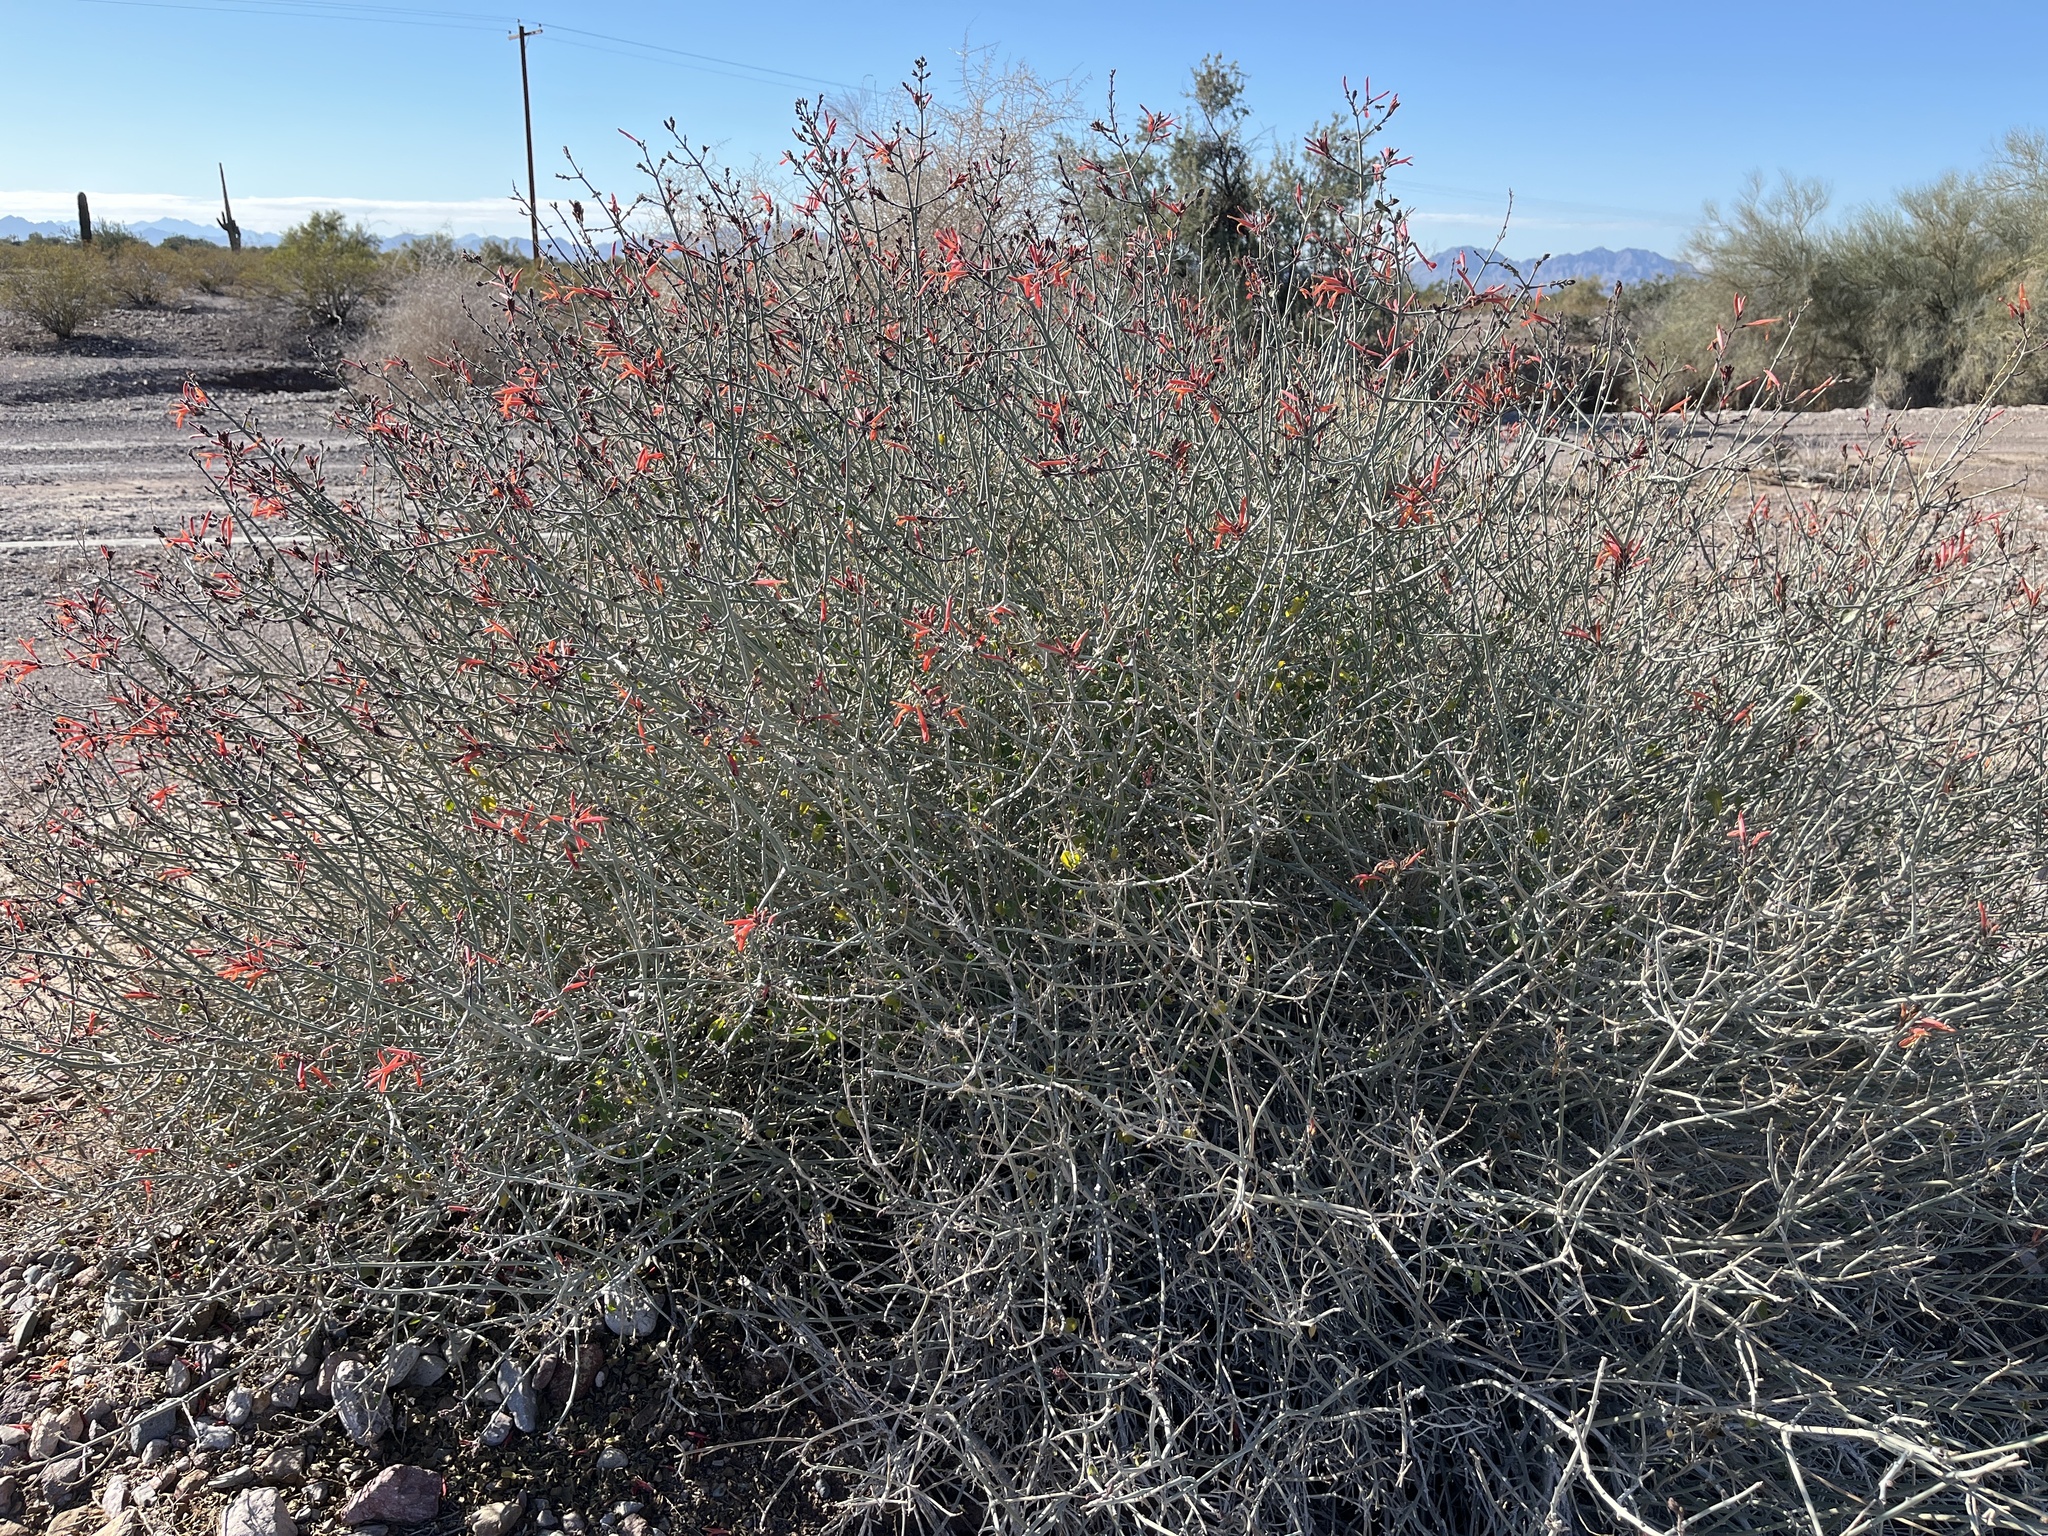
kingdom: Plantae
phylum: Tracheophyta
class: Magnoliopsida
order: Lamiales
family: Acanthaceae
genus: Justicia
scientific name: Justicia californica
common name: Chuparosa-honeysuckle
